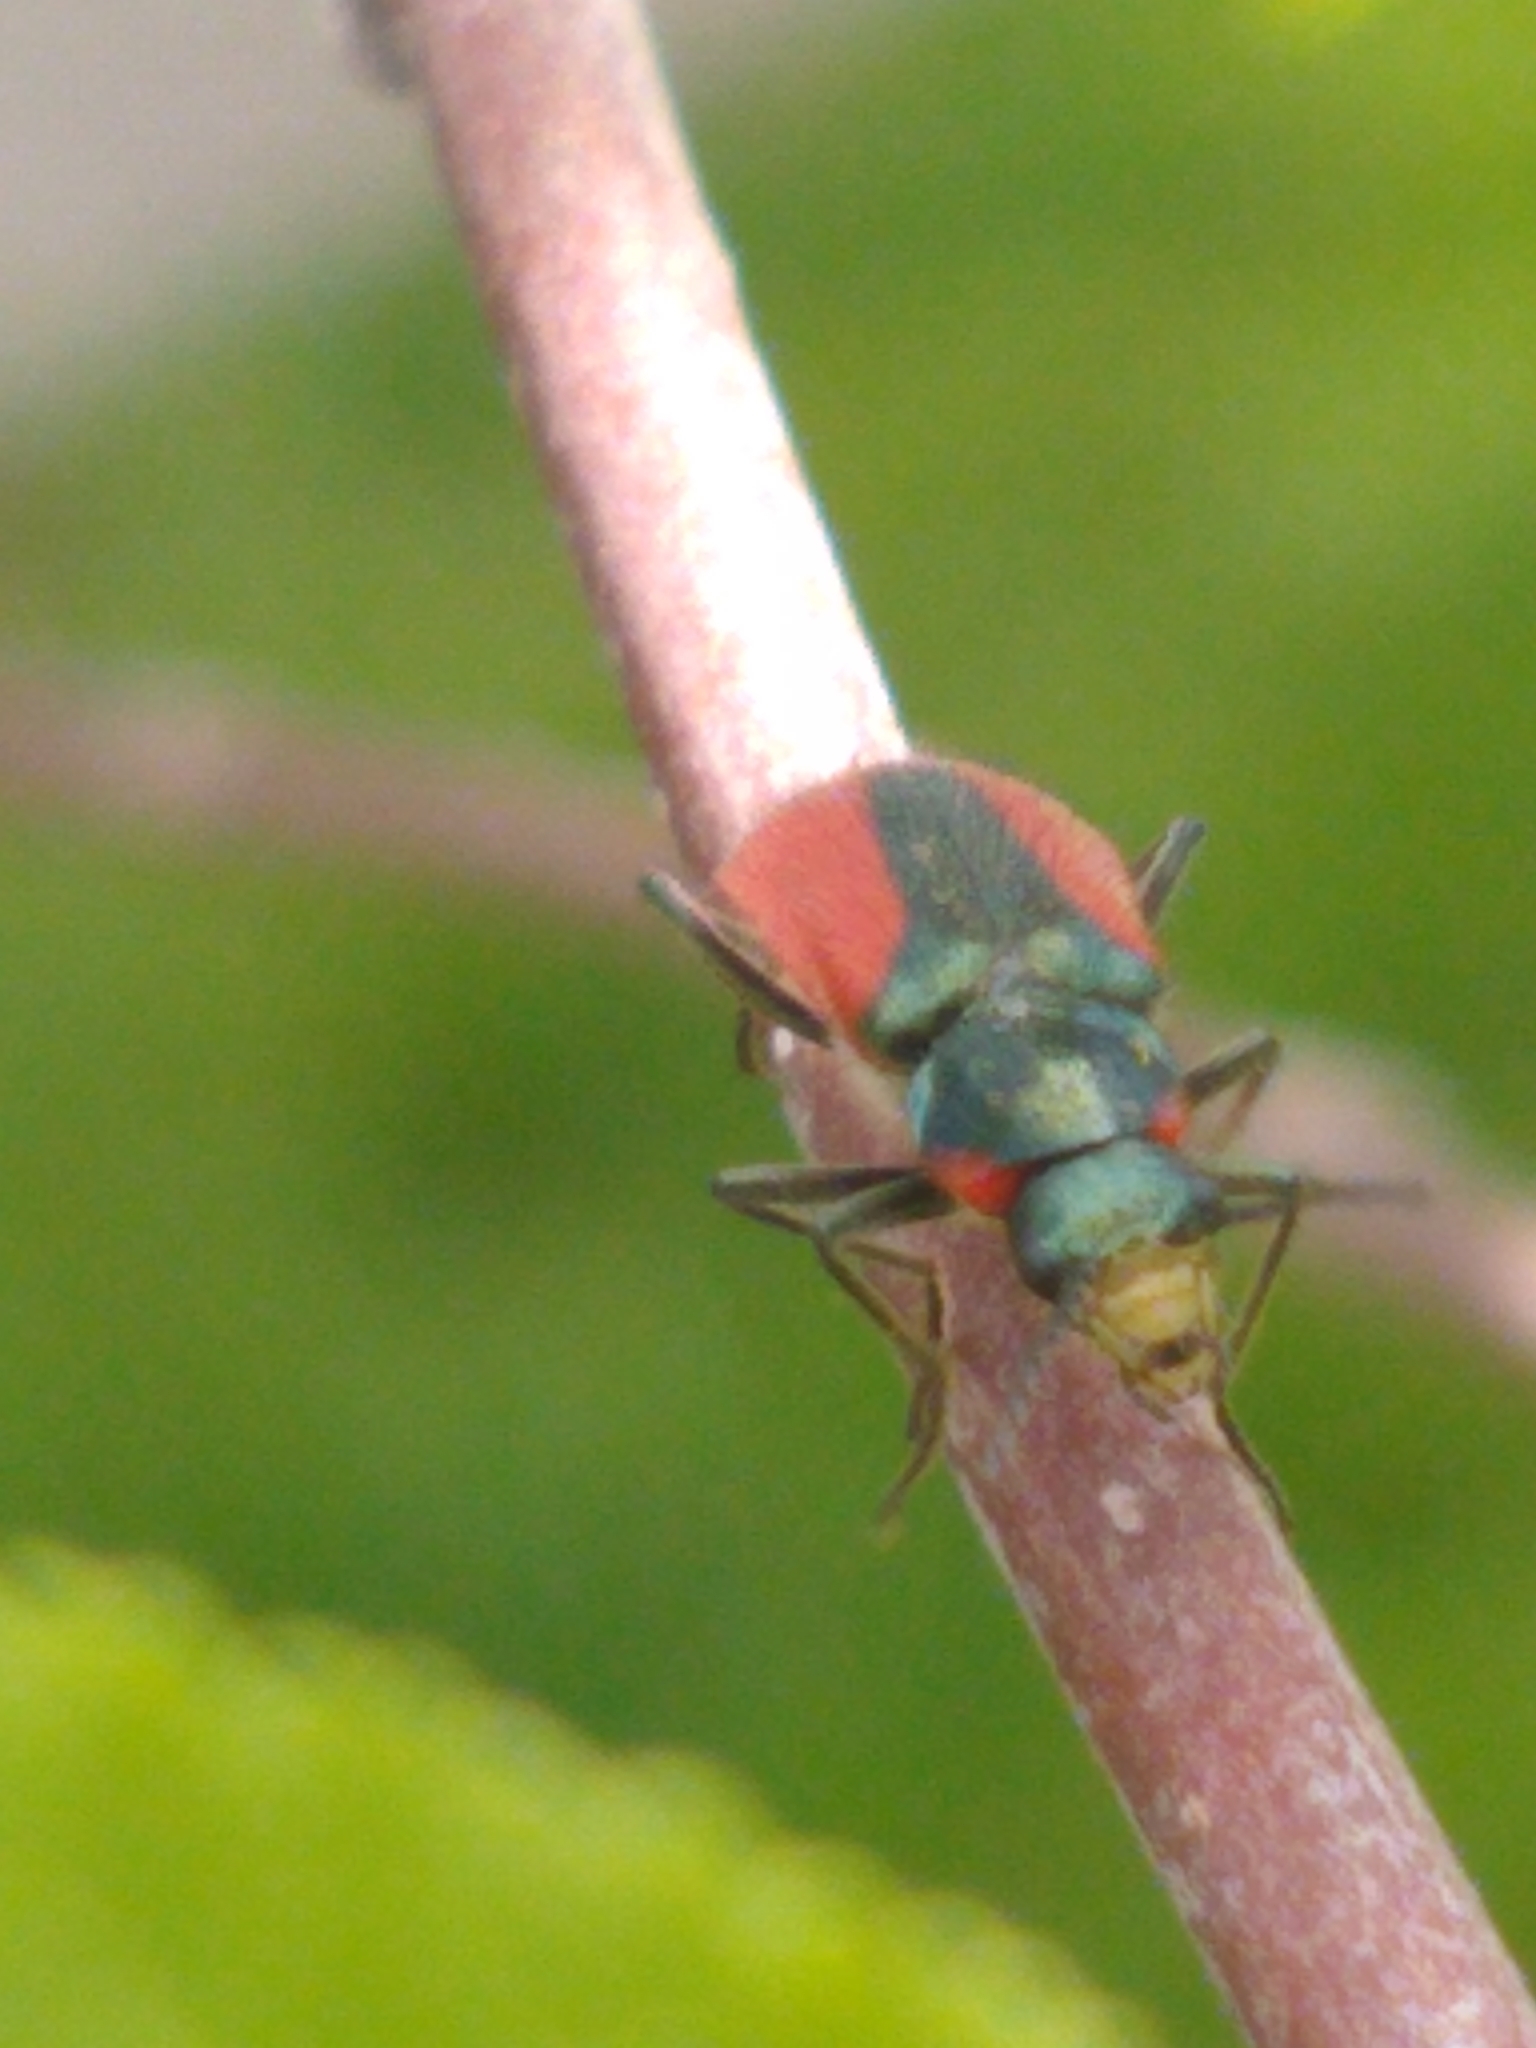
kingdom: Animalia
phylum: Arthropoda
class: Insecta
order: Coleoptera
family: Melyridae
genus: Malachius
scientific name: Malachius aeneus
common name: Scarlet malachite beetle
